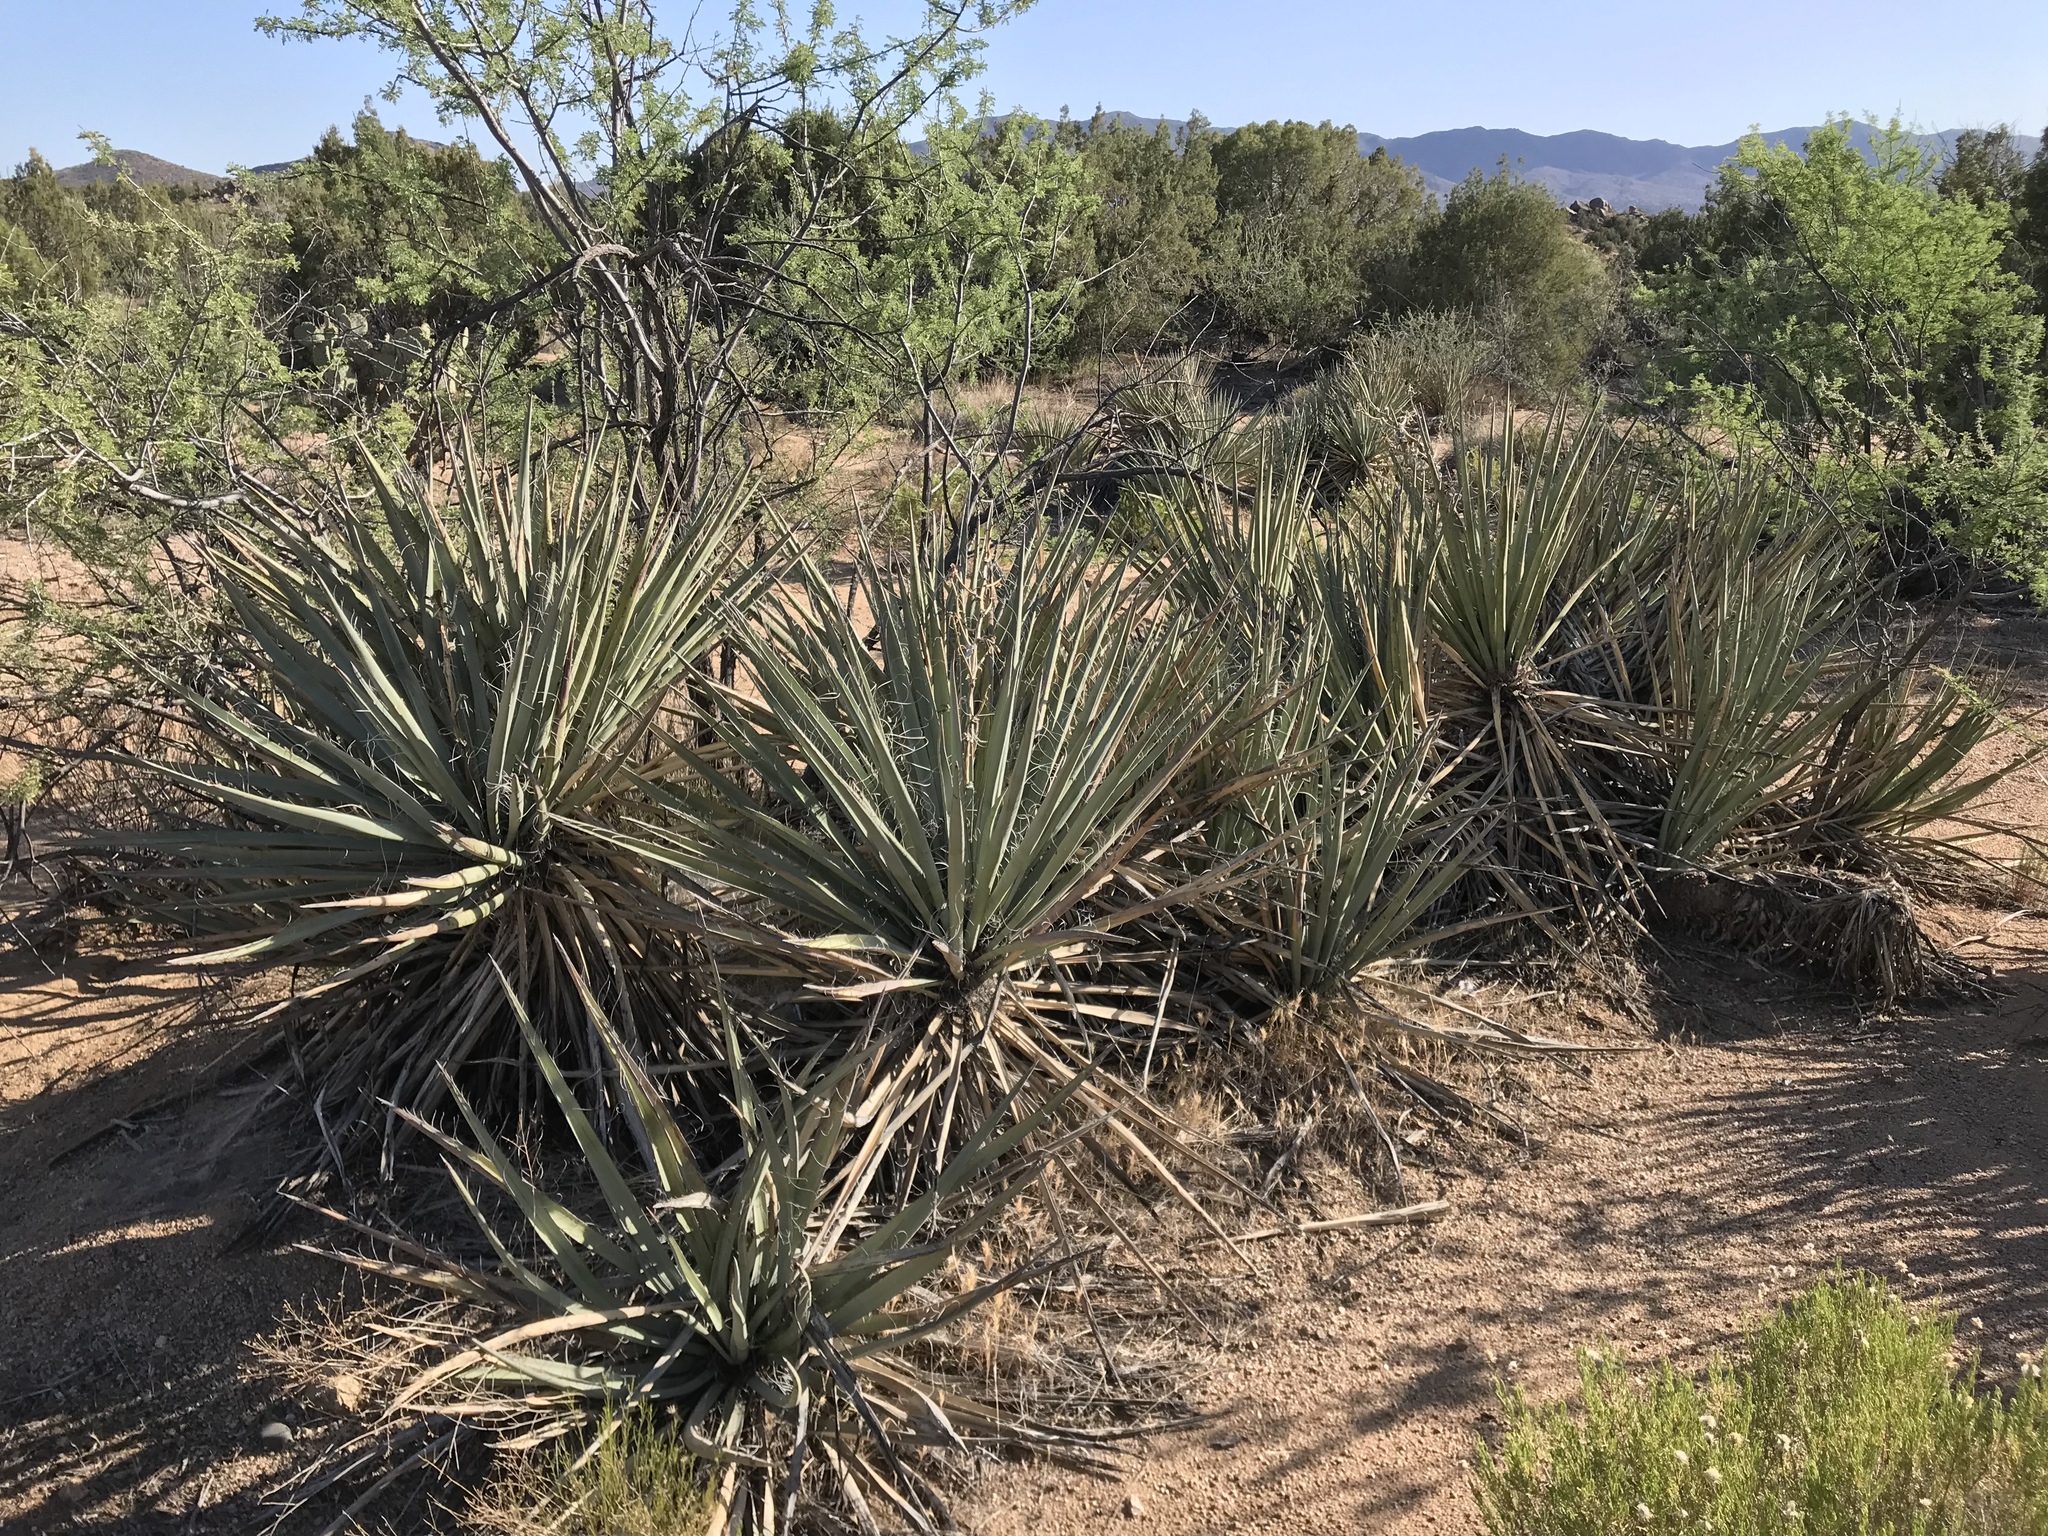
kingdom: Plantae
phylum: Tracheophyta
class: Liliopsida
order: Asparagales
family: Asparagaceae
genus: Yucca
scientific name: Yucca baccata
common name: Banana yucca
